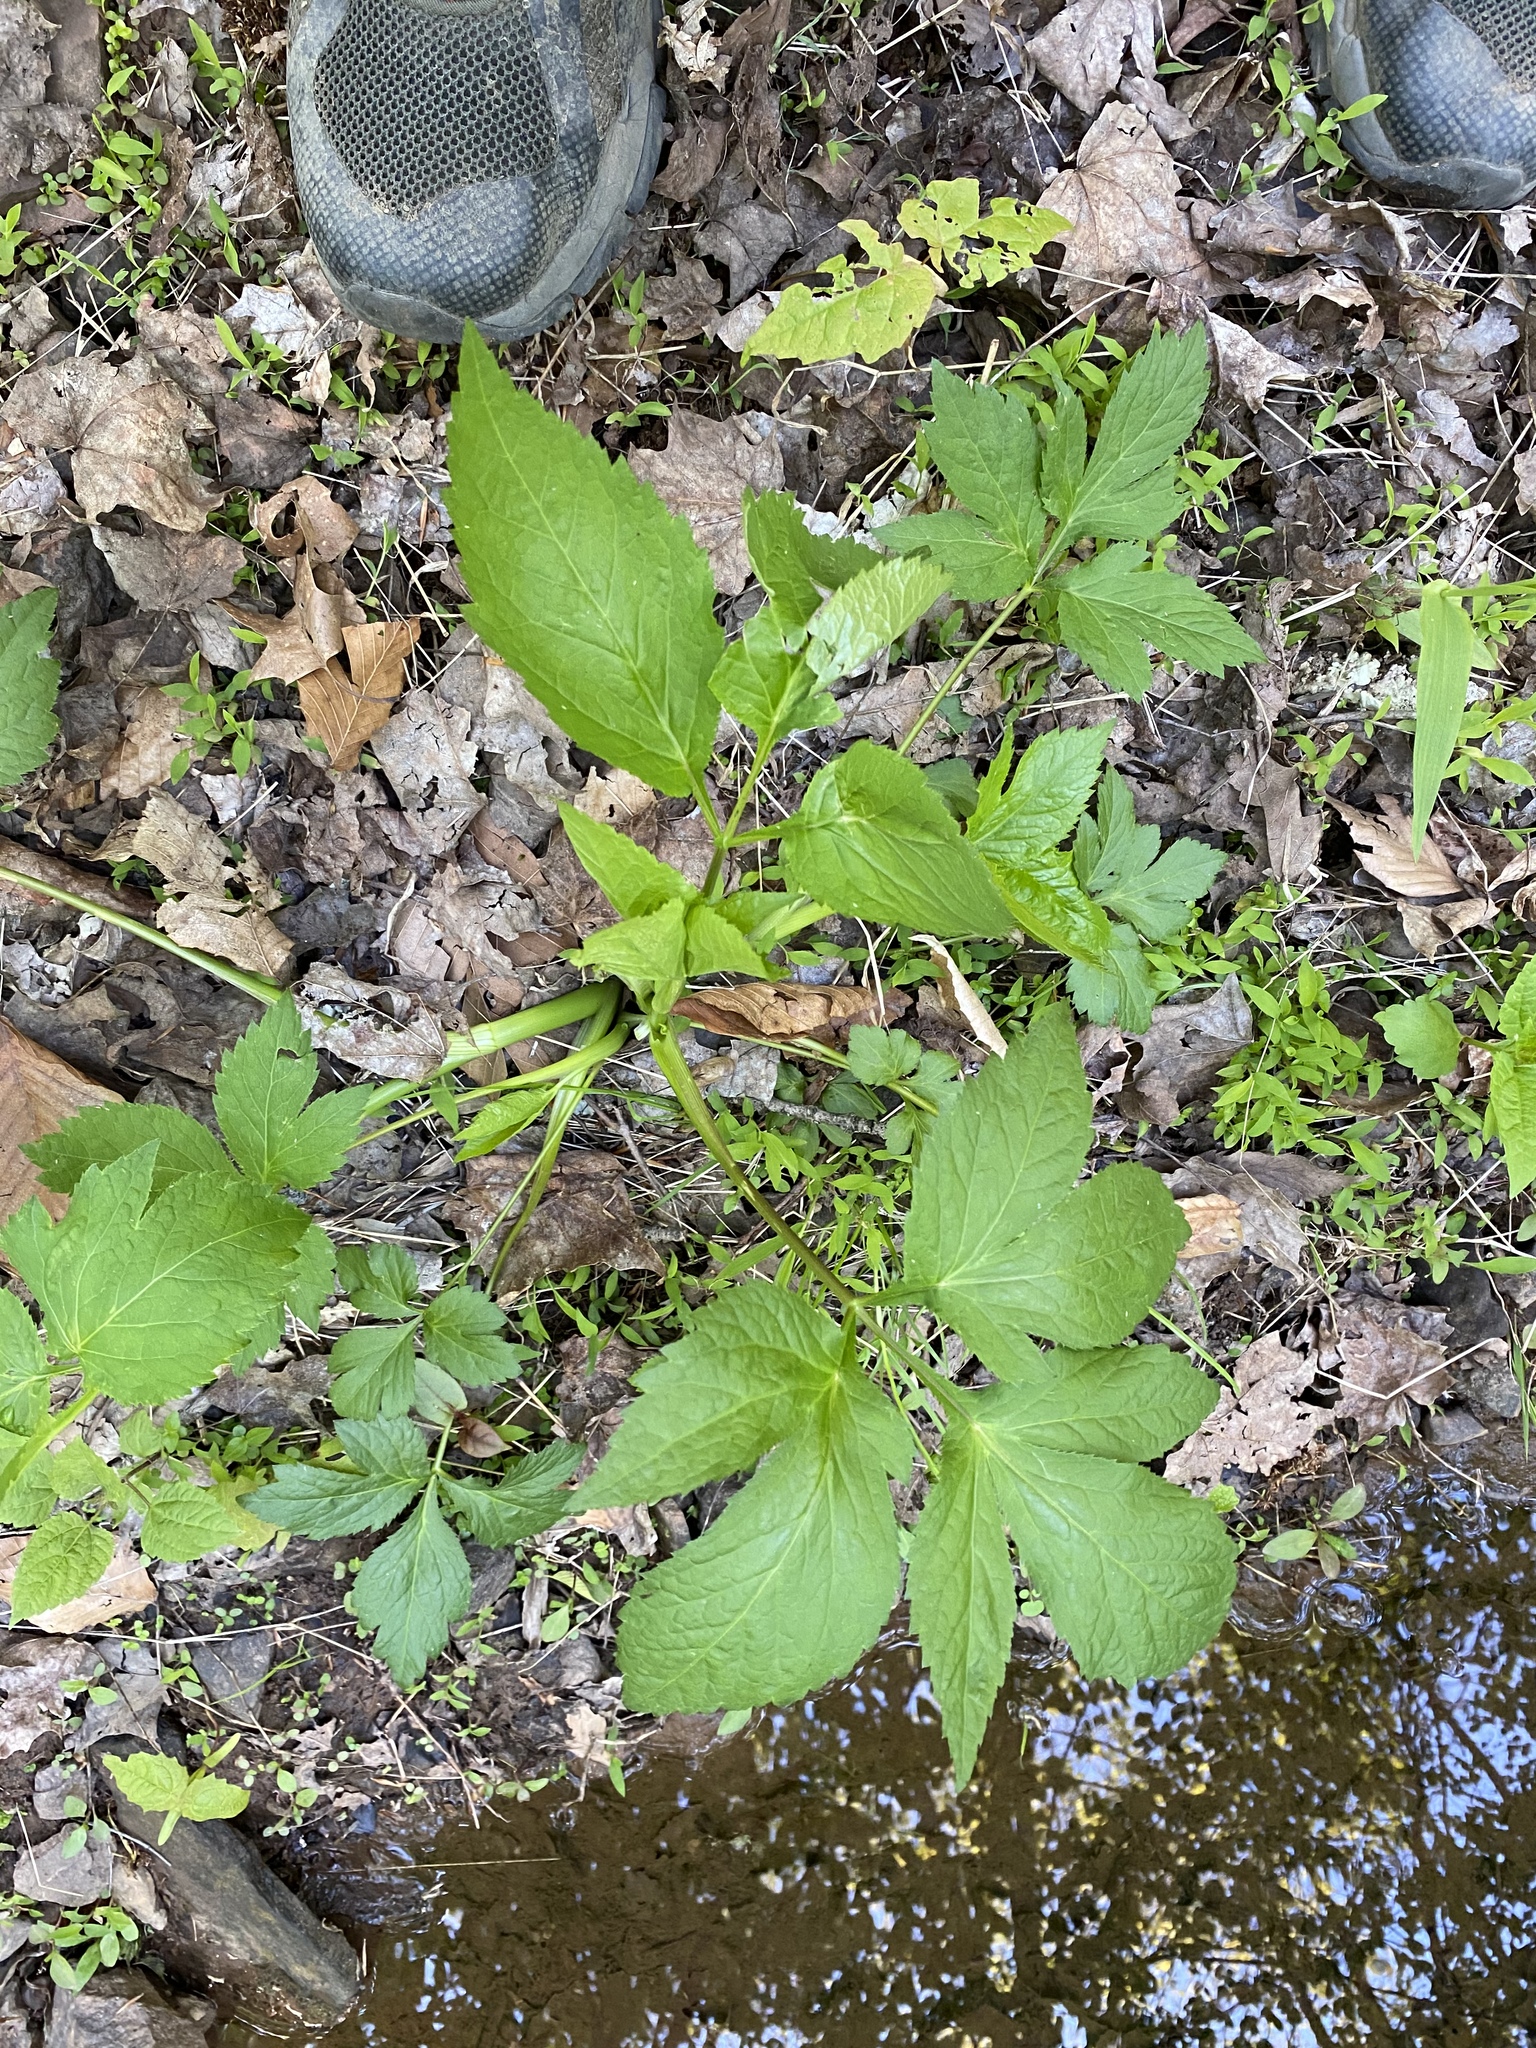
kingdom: Plantae
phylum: Tracheophyta
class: Magnoliopsida
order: Apiales
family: Apiaceae
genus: Cryptotaenia
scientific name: Cryptotaenia canadensis
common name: Honewort
